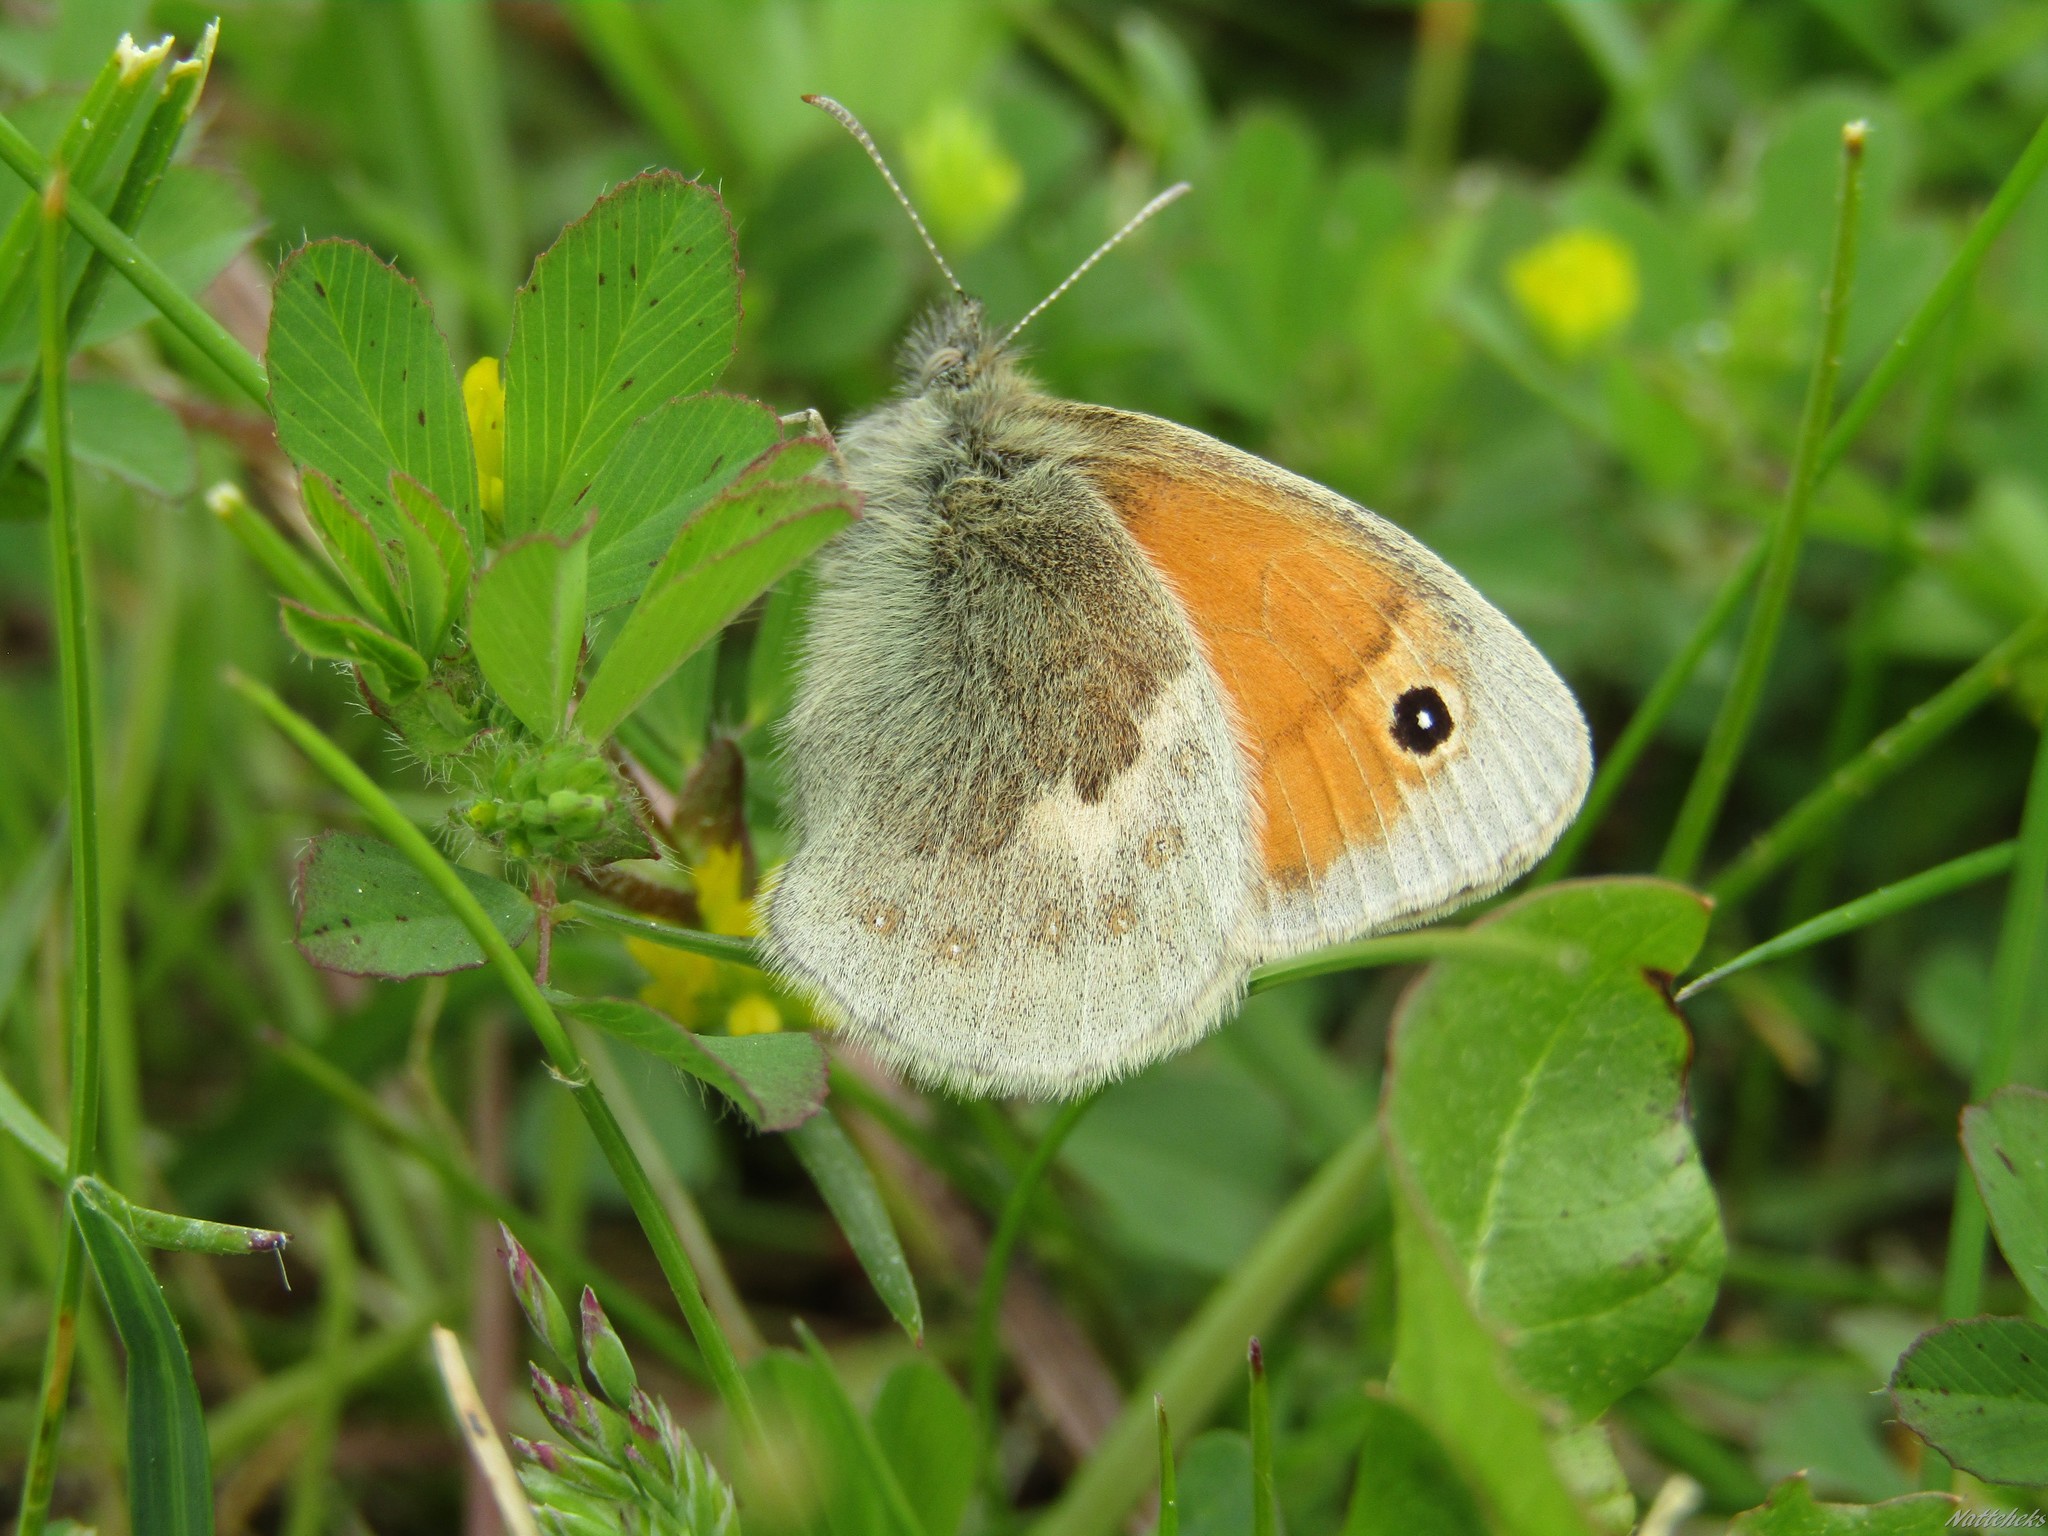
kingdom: Animalia
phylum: Arthropoda
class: Insecta
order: Lepidoptera
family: Nymphalidae
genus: Coenonympha
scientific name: Coenonympha pamphilus
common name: Small heath
